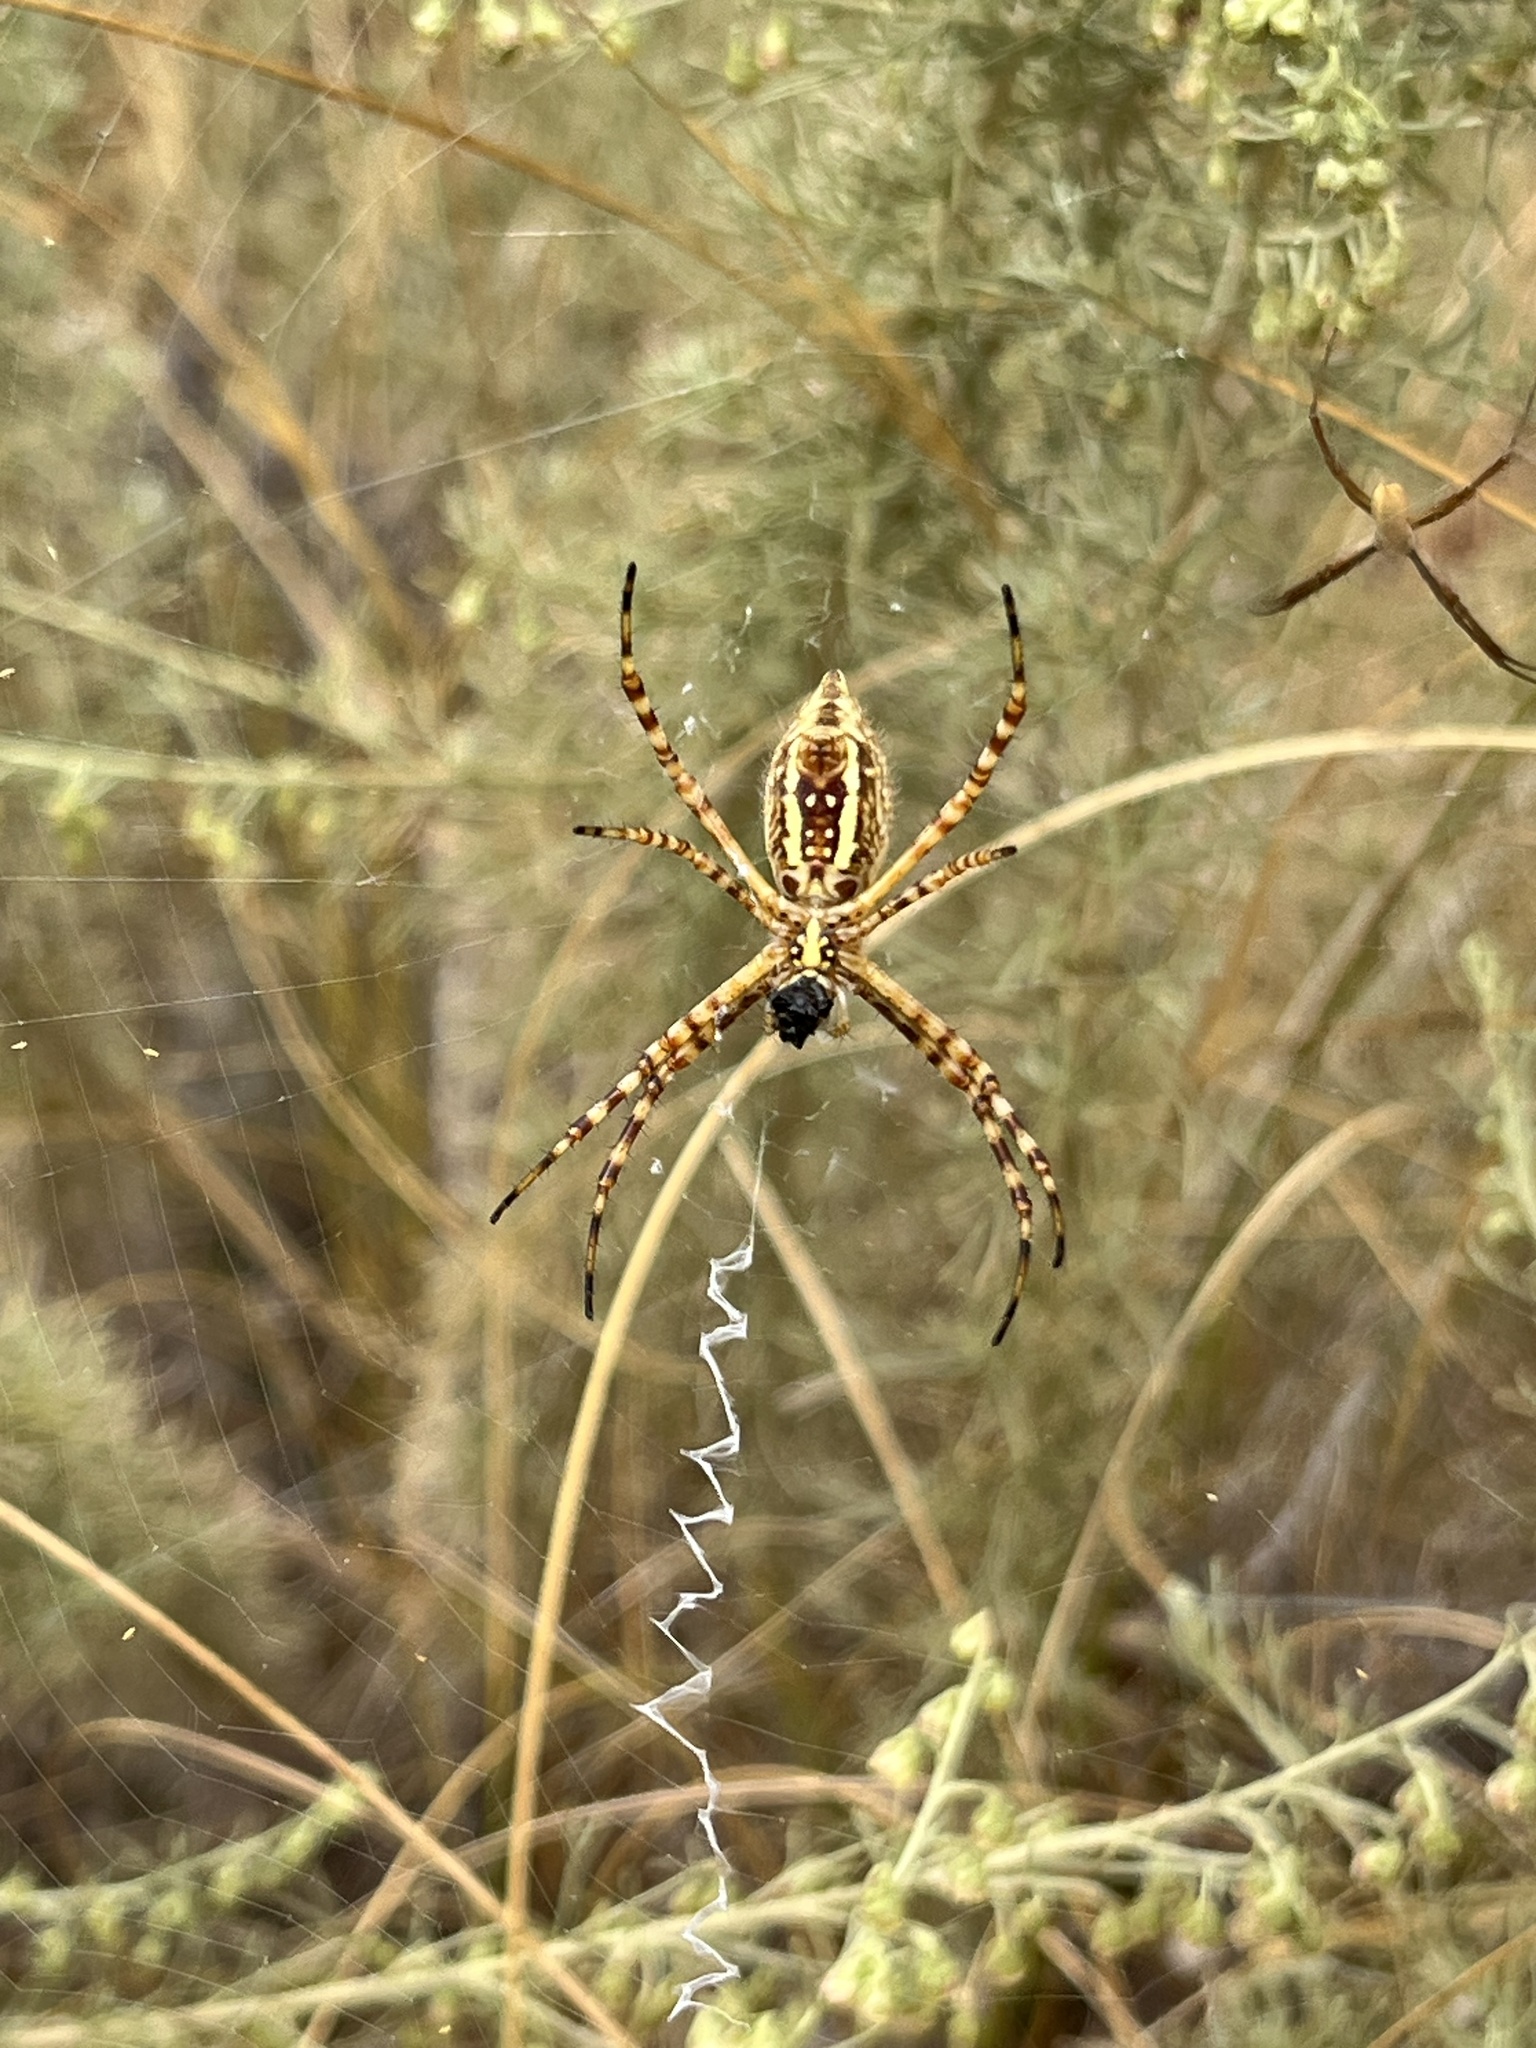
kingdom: Animalia
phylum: Arthropoda
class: Arachnida
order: Araneae
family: Araneidae
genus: Argiope
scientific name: Argiope trifasciata
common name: Banded garden spider
